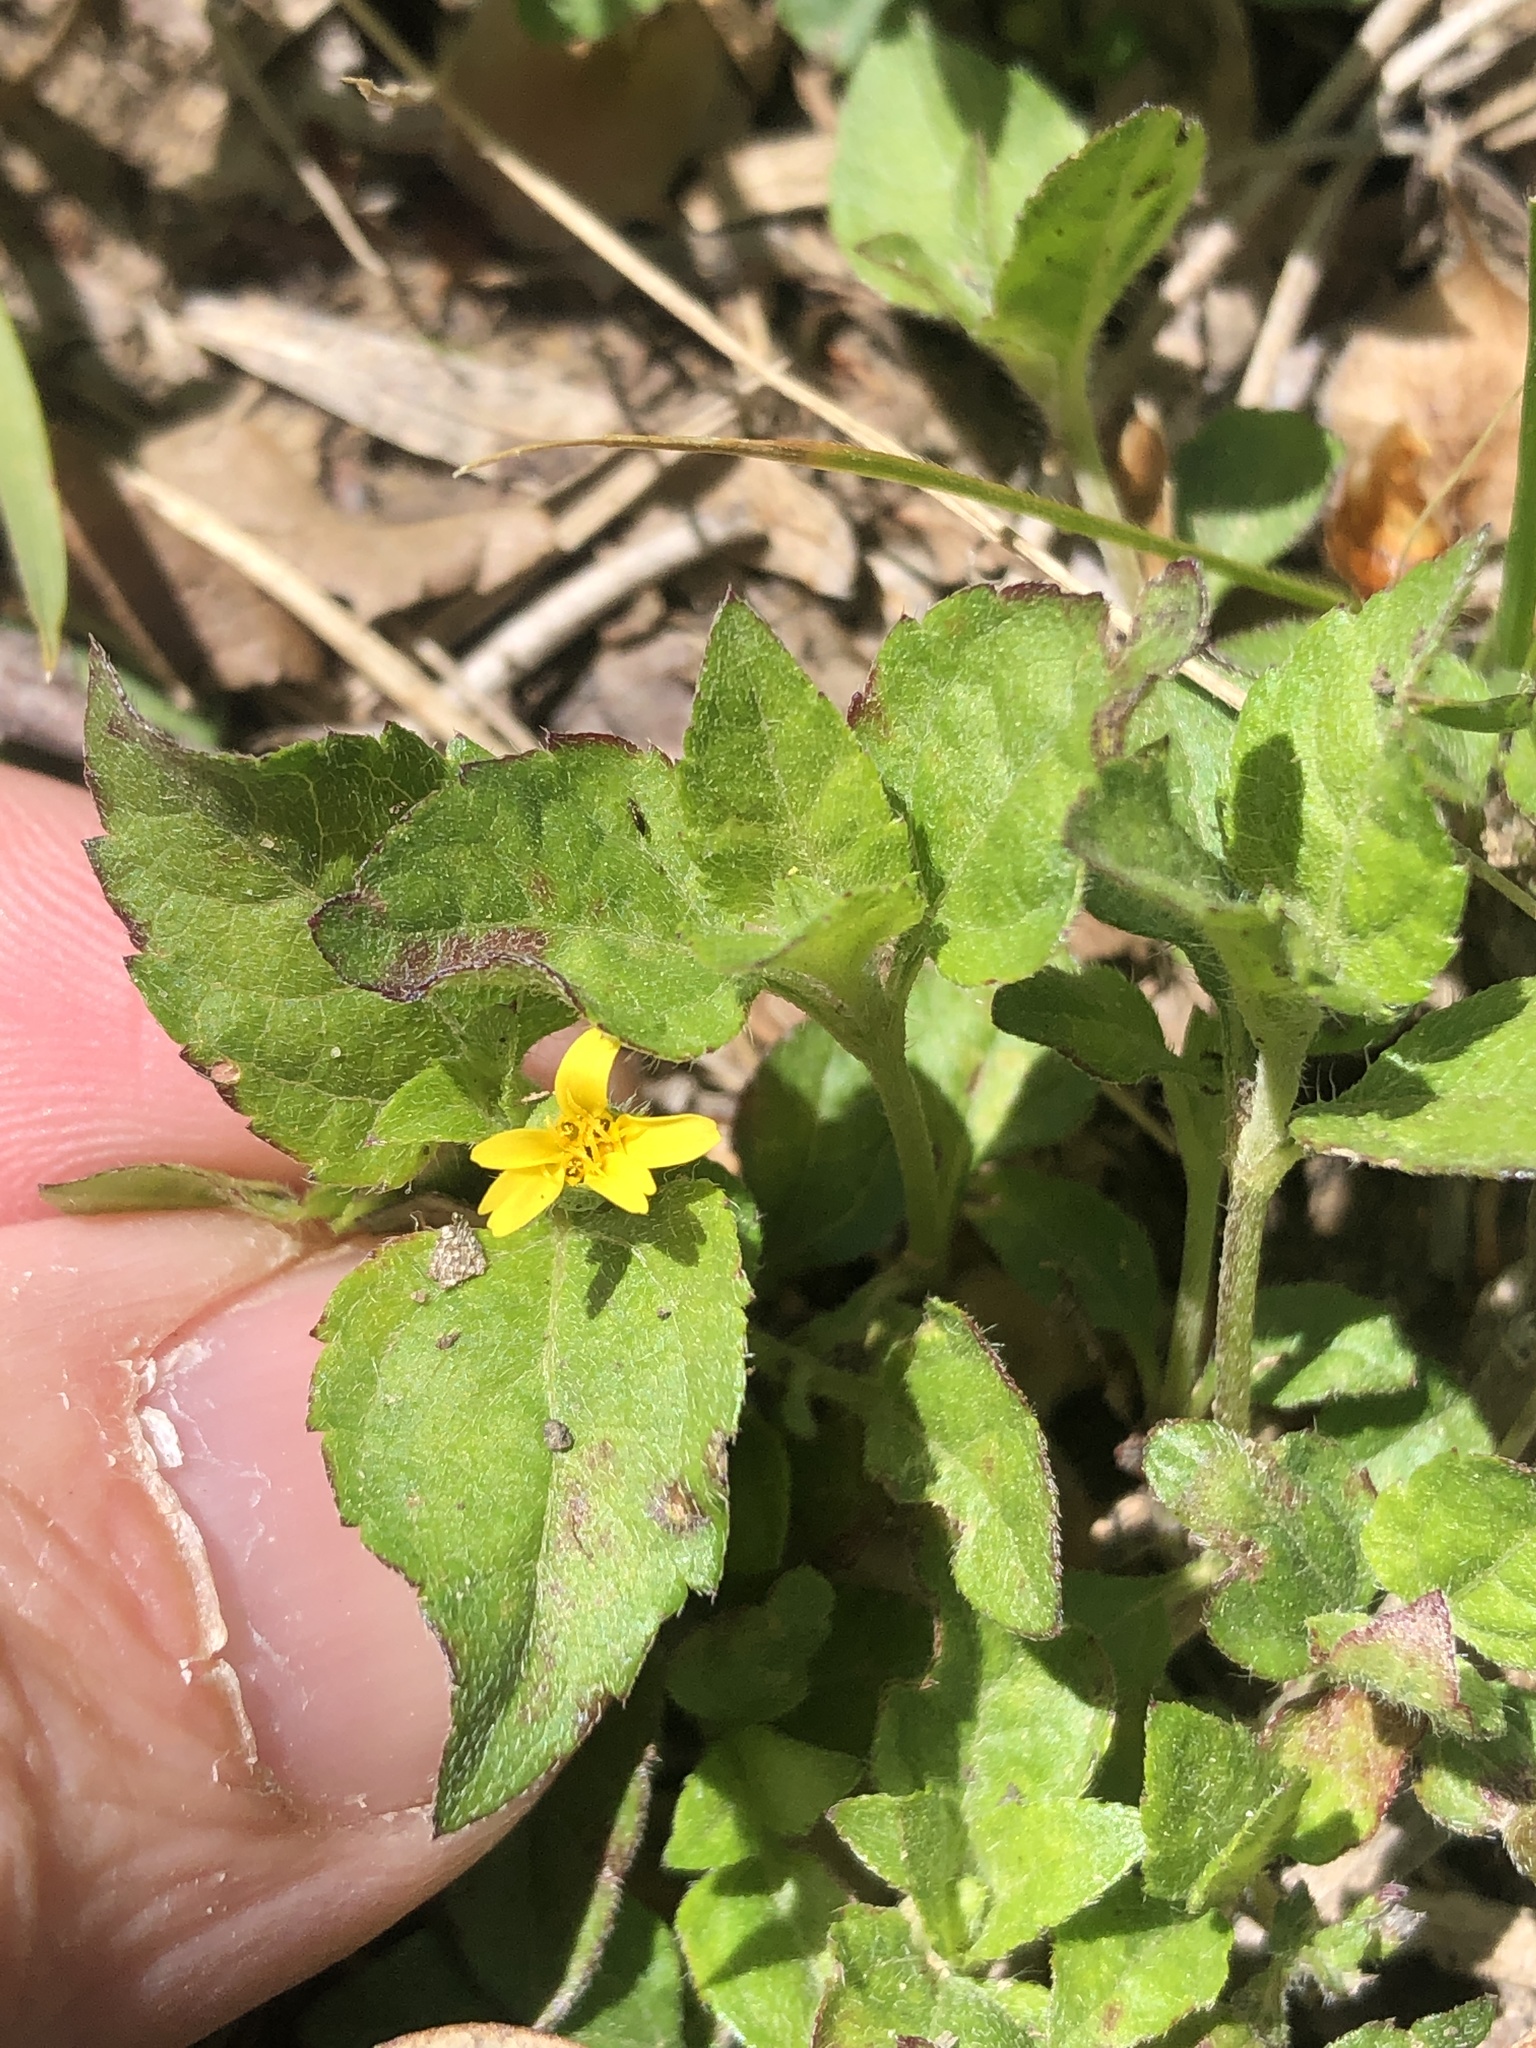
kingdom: Plantae
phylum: Tracheophyta
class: Magnoliopsida
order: Asterales
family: Asteraceae
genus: Calyptocarpus
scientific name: Calyptocarpus vialis
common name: Straggler daisy
